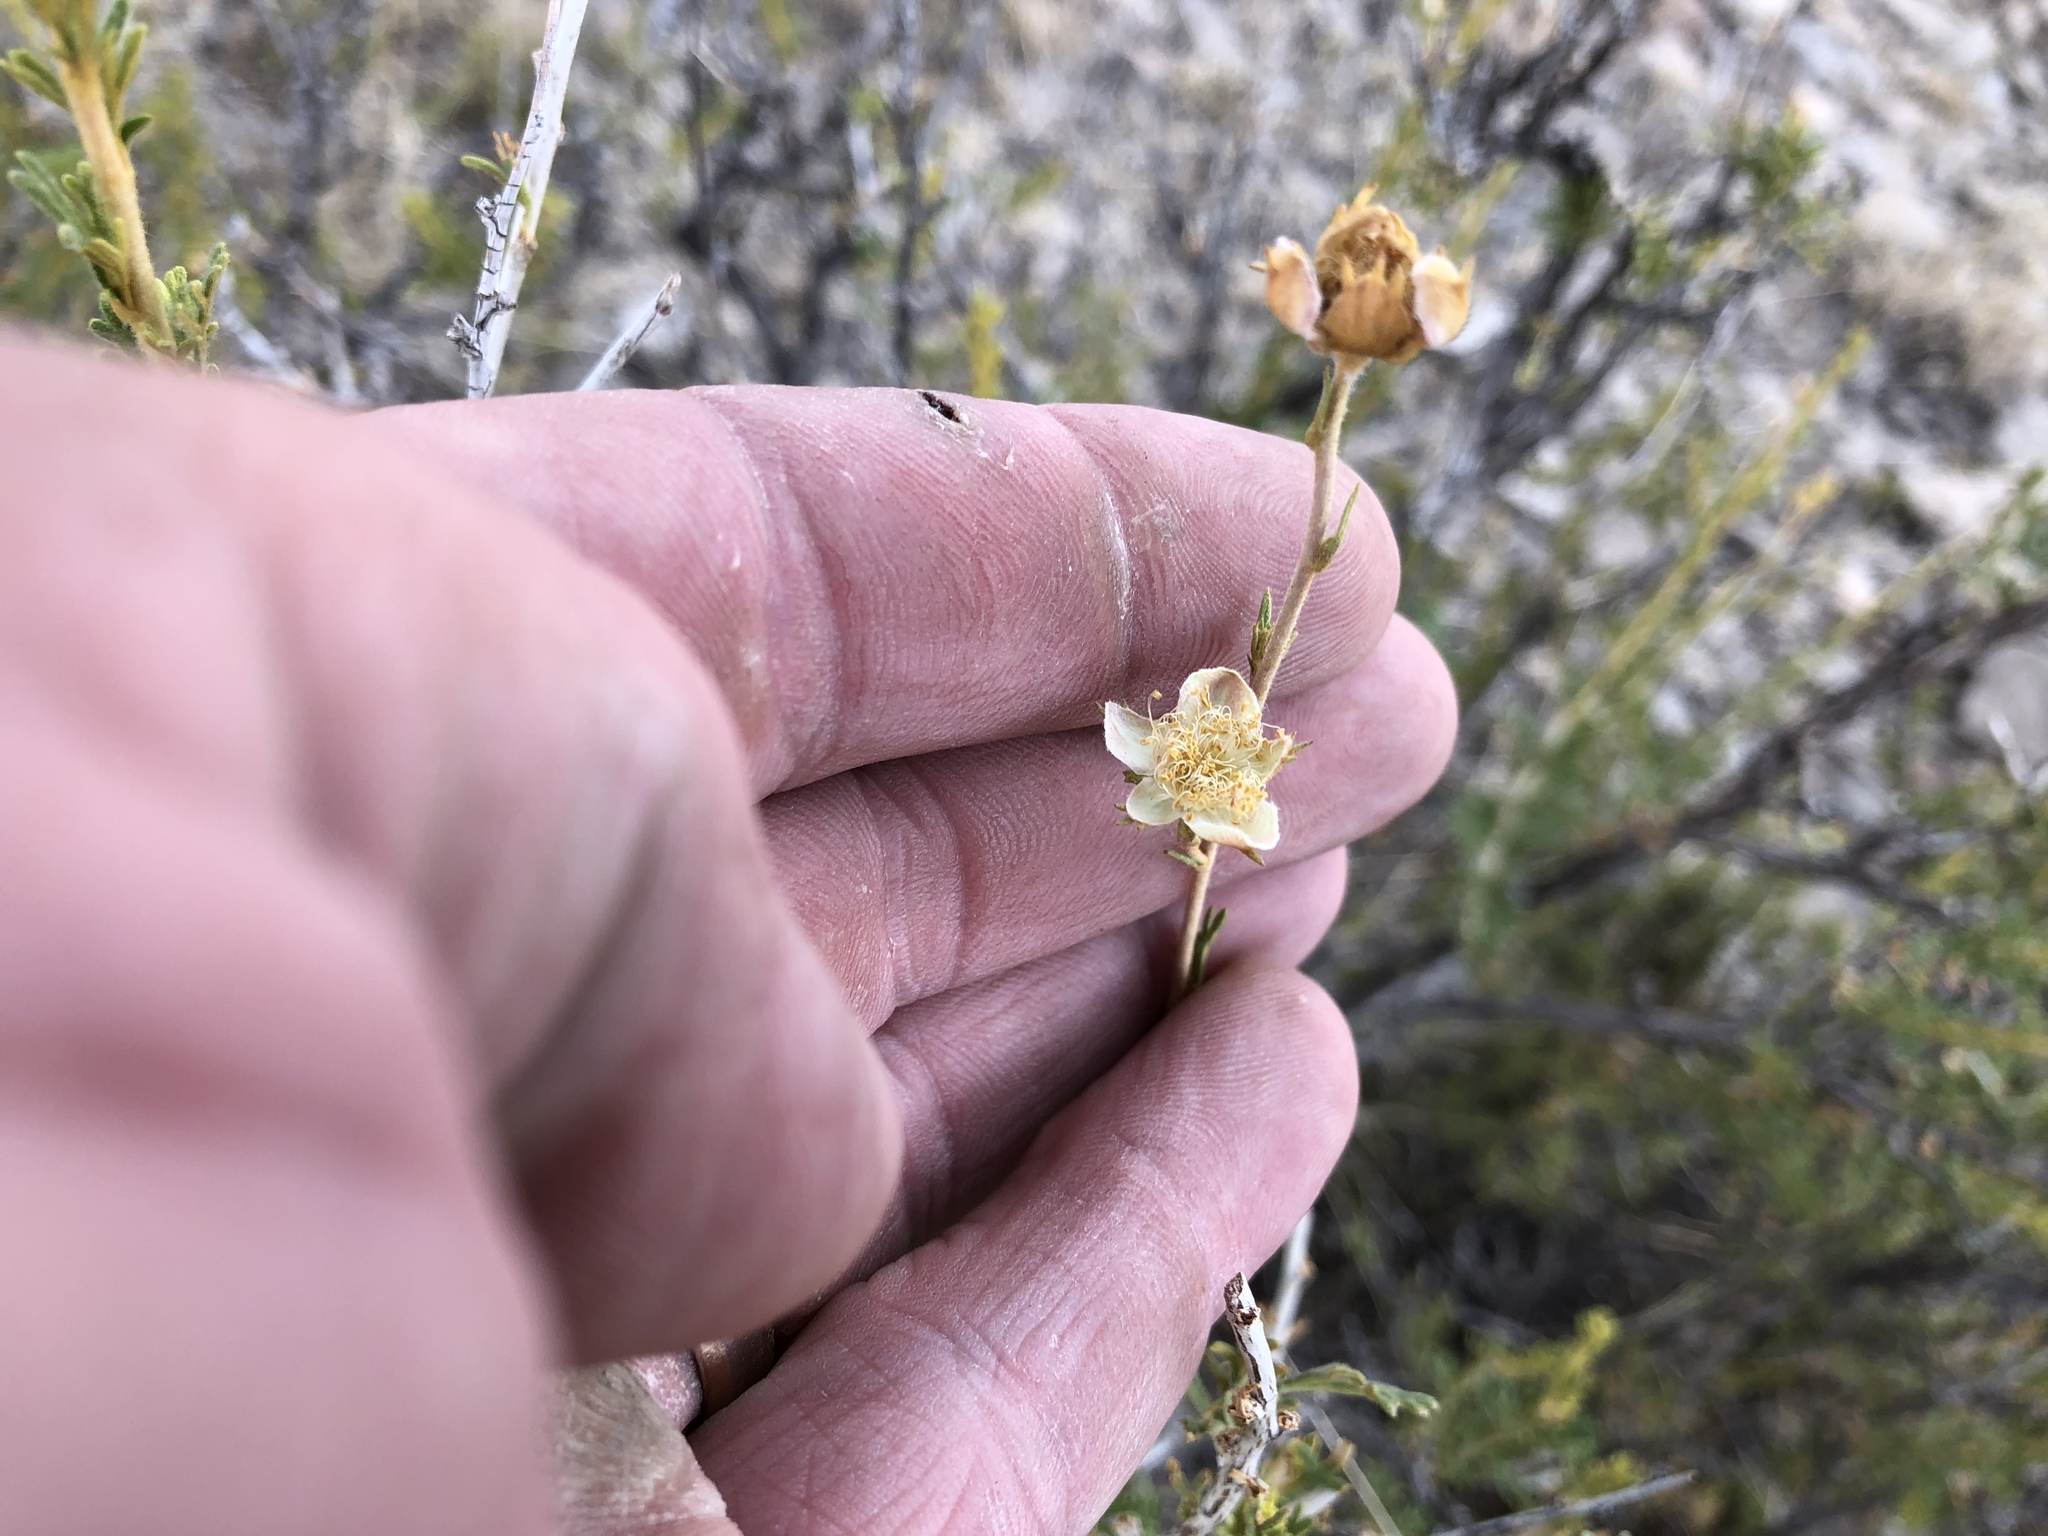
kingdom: Plantae
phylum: Tracheophyta
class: Magnoliopsida
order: Rosales
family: Rosaceae
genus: Fallugia
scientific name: Fallugia paradoxa
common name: Apache-plume
